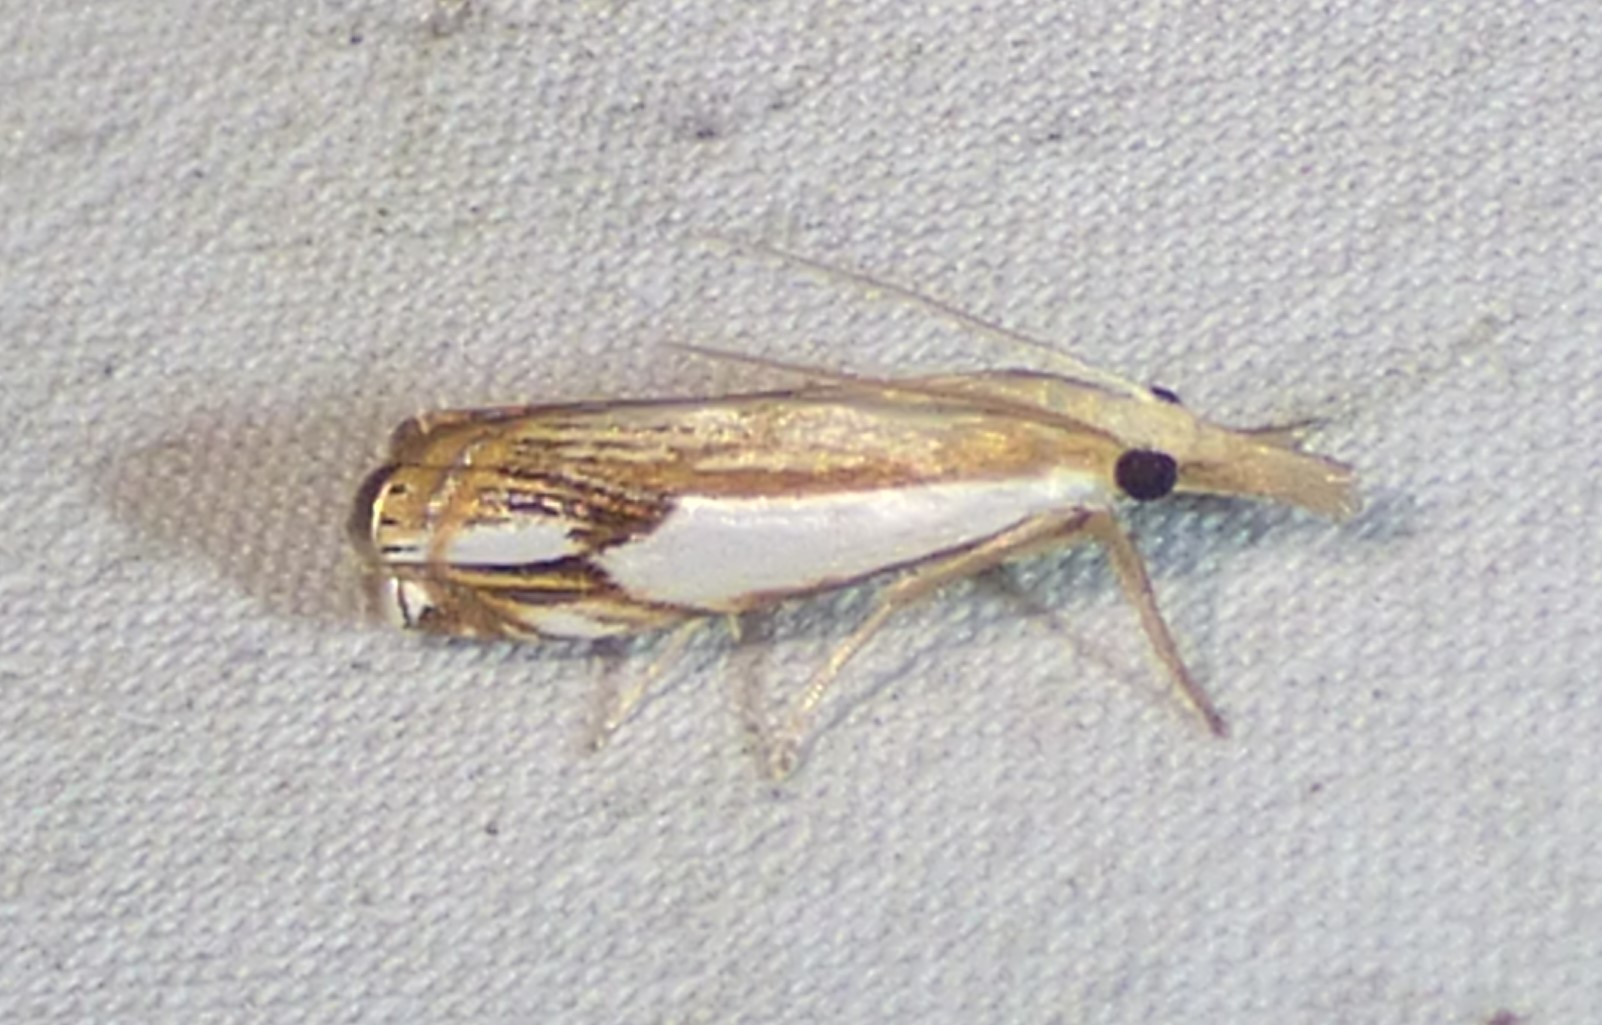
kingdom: Animalia
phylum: Arthropoda
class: Insecta
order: Lepidoptera
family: Crambidae
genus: Crambus
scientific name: Crambus agitatellus
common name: Double-banded grass-veneer
